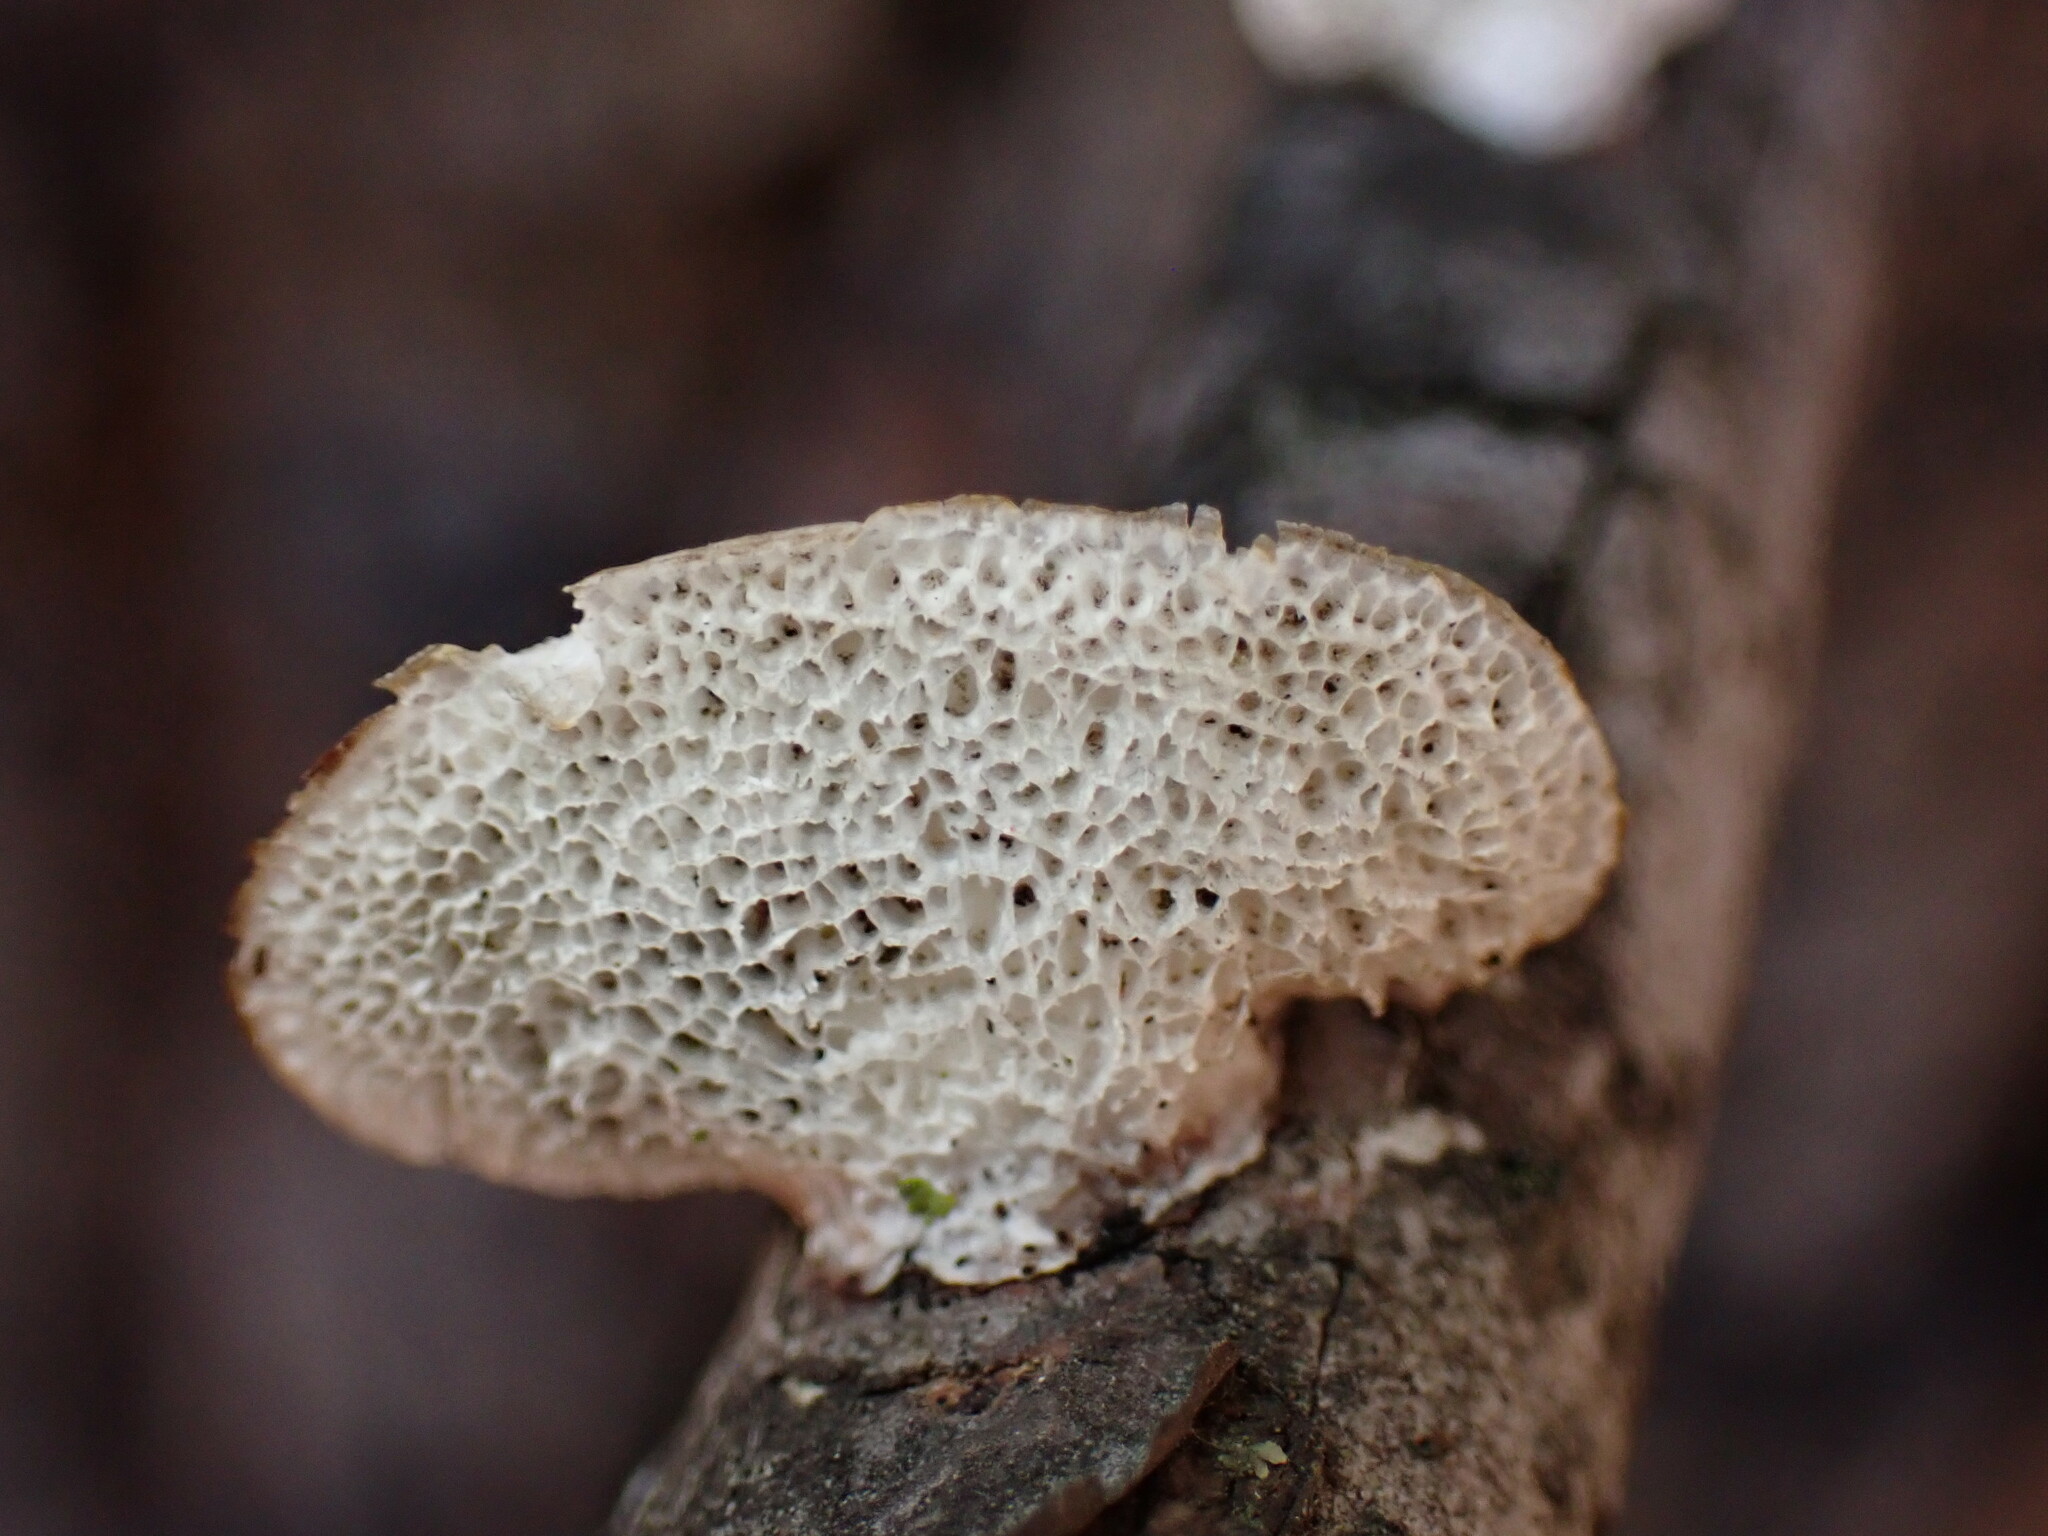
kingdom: Fungi
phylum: Basidiomycota
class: Agaricomycetes
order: Polyporales
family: Polyporaceae
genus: Poronidulus
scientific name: Poronidulus conchifer
